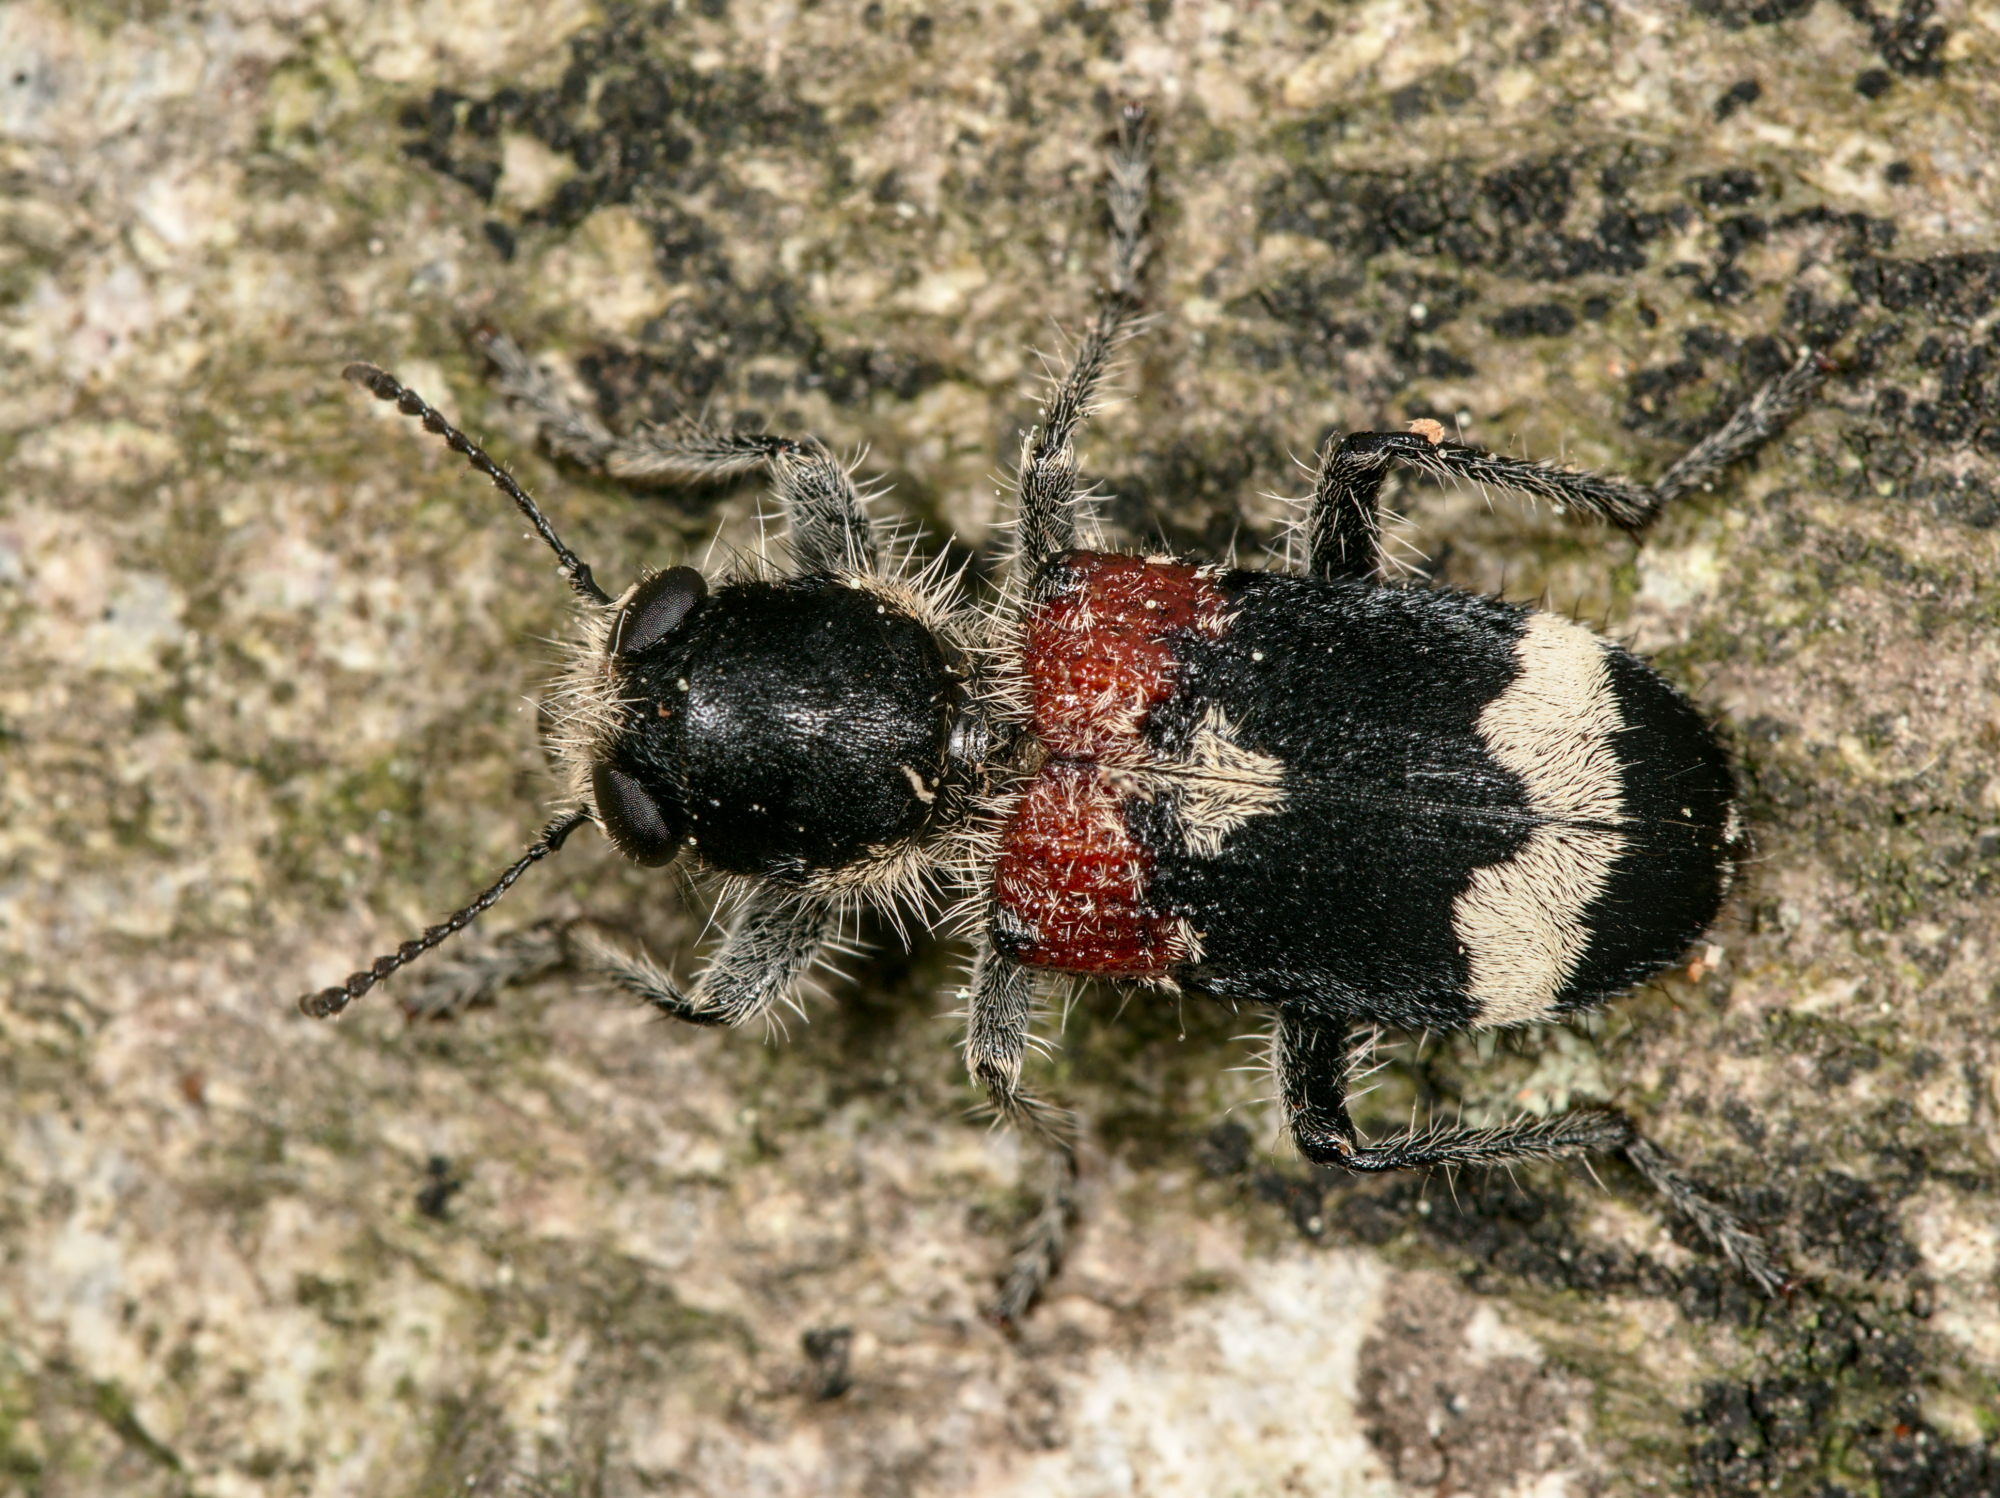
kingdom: Animalia
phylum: Arthropoda
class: Insecta
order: Coleoptera
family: Cleridae
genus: Clerus
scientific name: Clerus mutillarius
